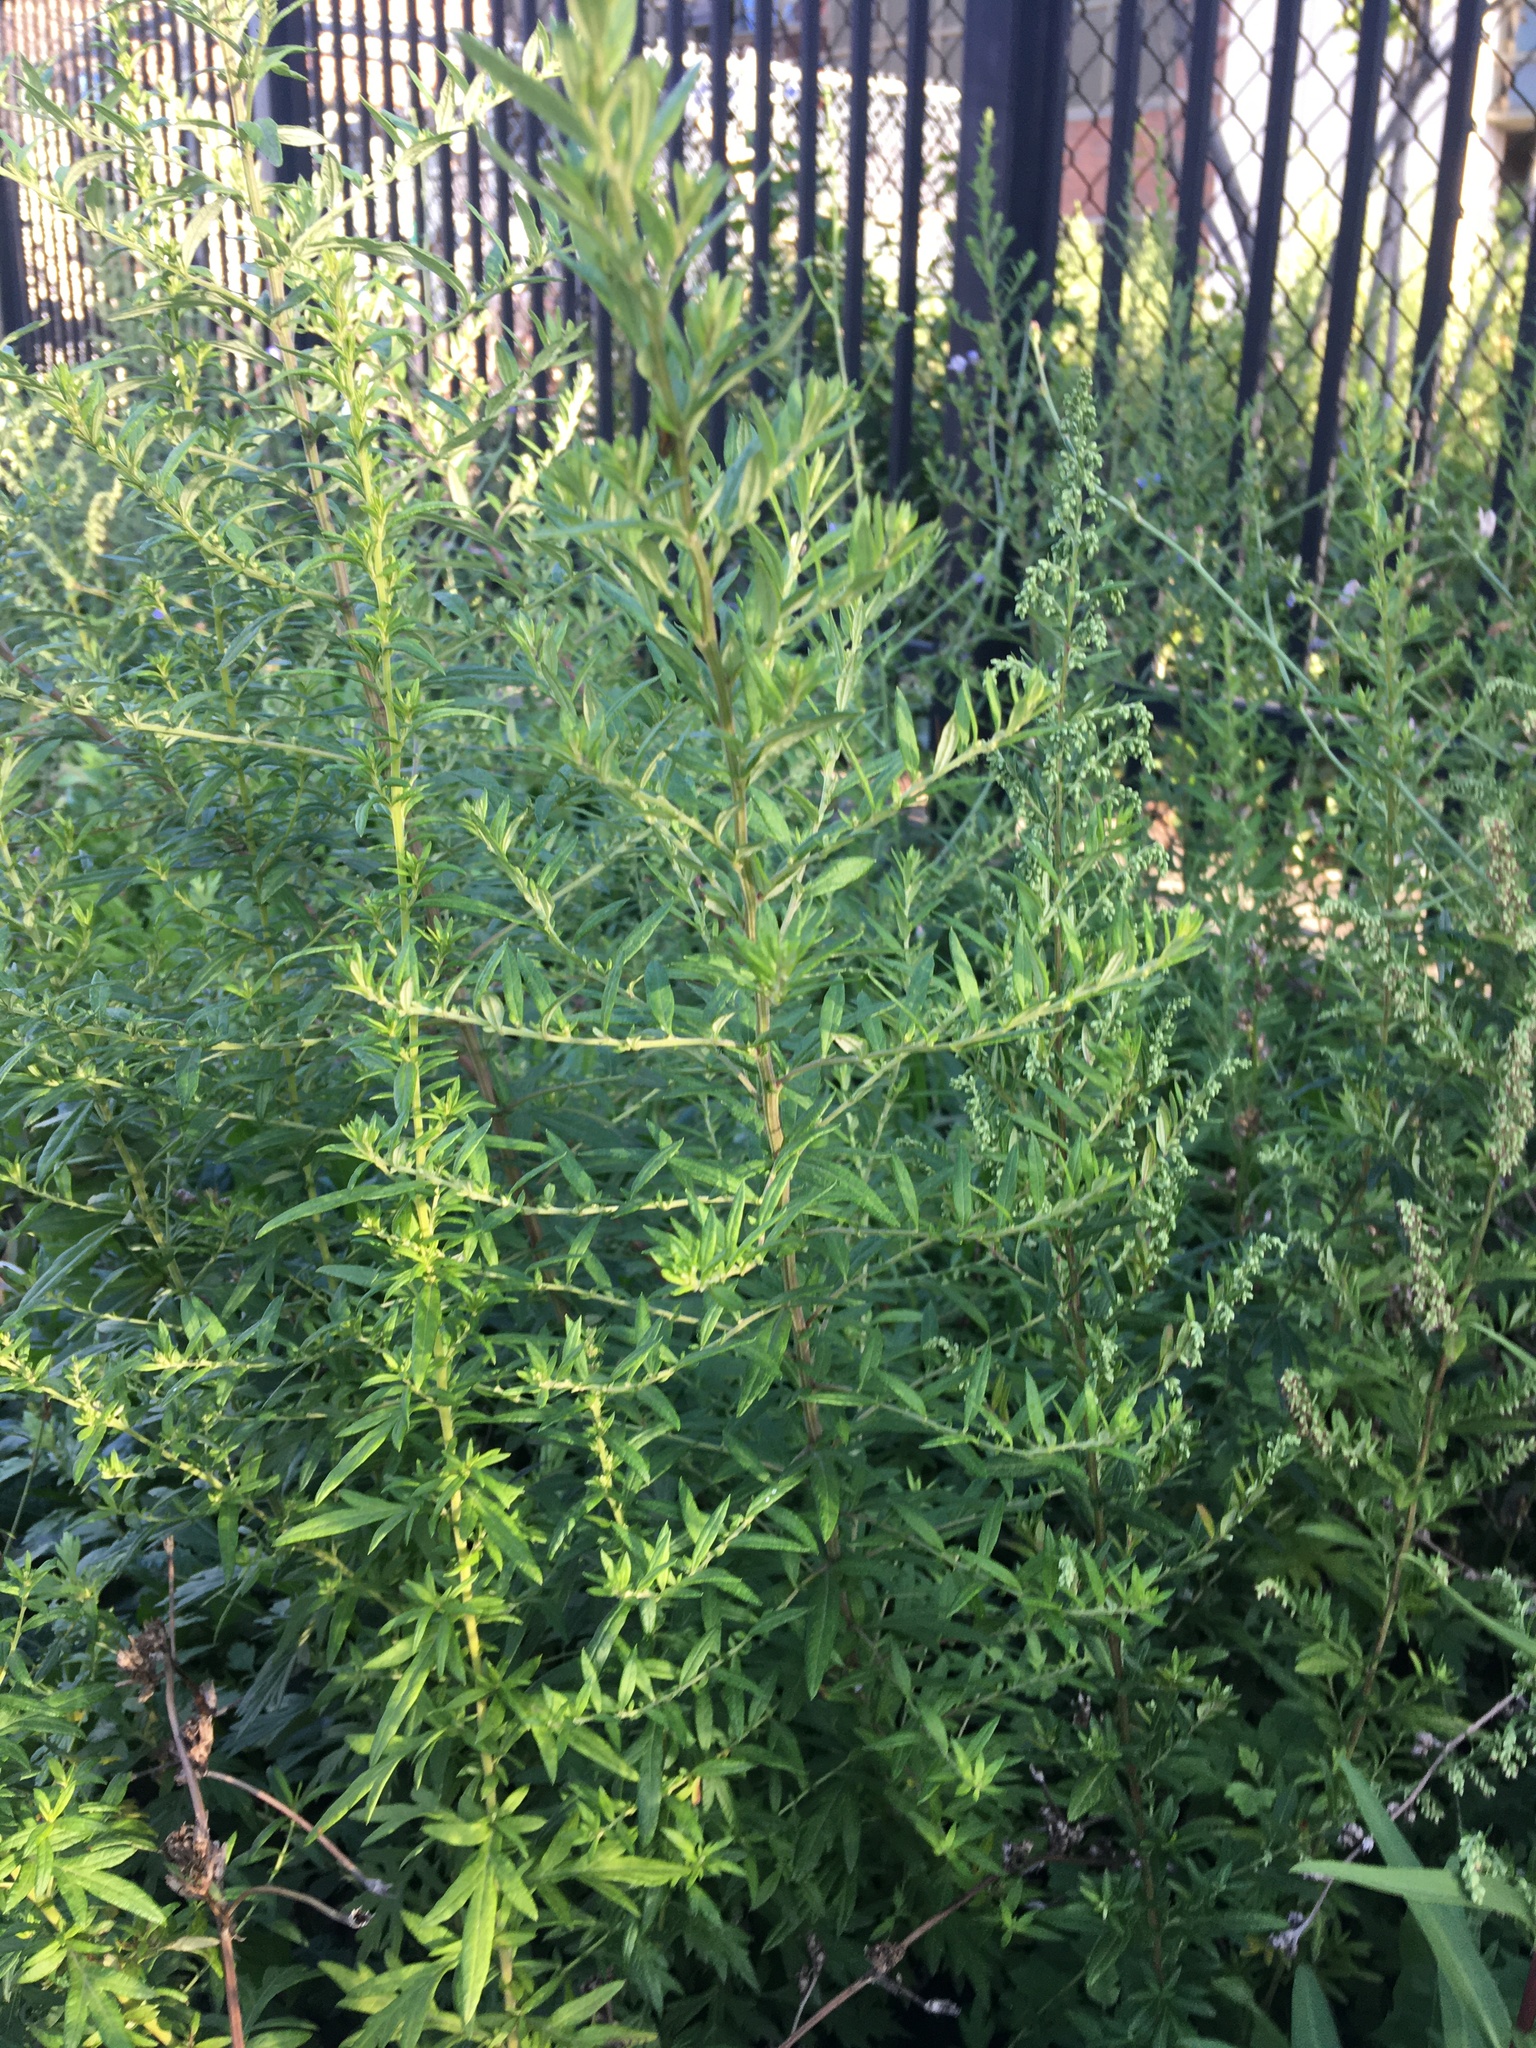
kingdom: Plantae
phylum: Tracheophyta
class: Magnoliopsida
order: Asterales
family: Asteraceae
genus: Artemisia
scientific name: Artemisia vulgaris
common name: Mugwort
